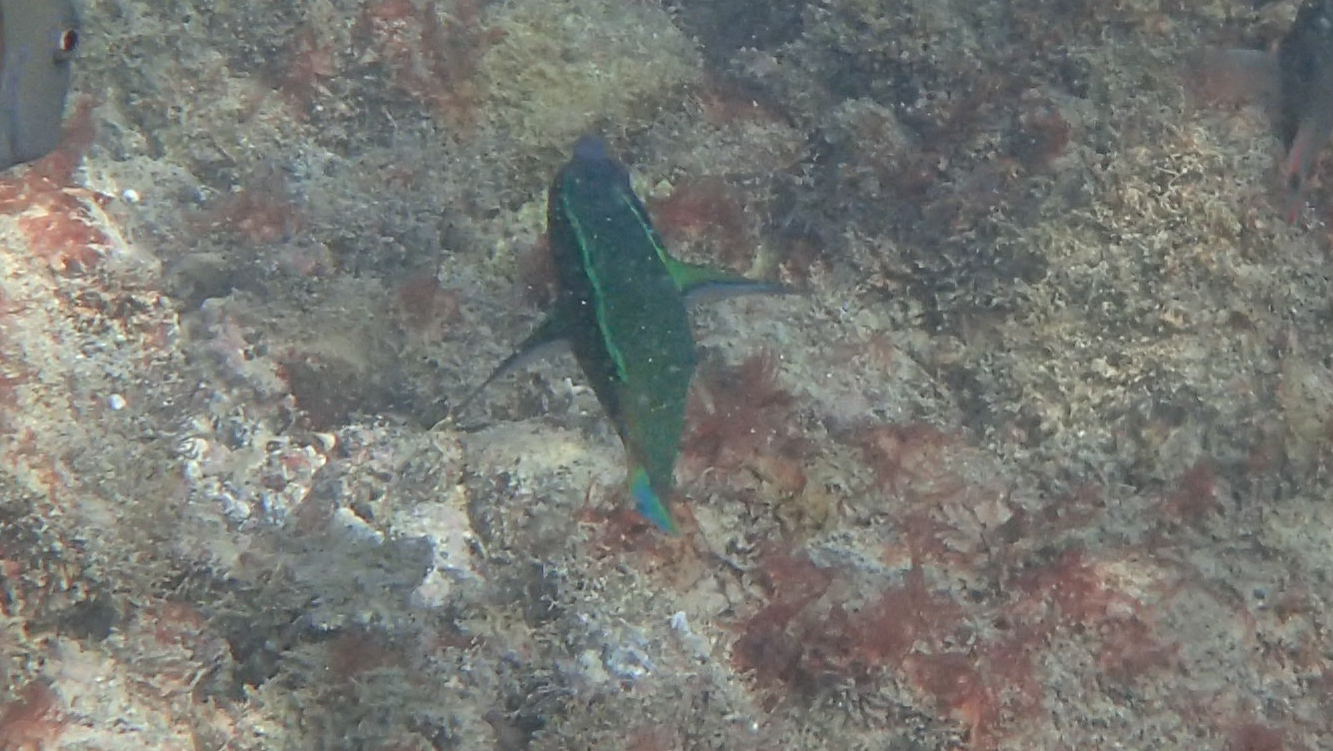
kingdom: Animalia
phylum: Chordata
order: Perciformes
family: Labridae
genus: Gomphosus
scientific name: Gomphosus varius
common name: Bird wrasse
